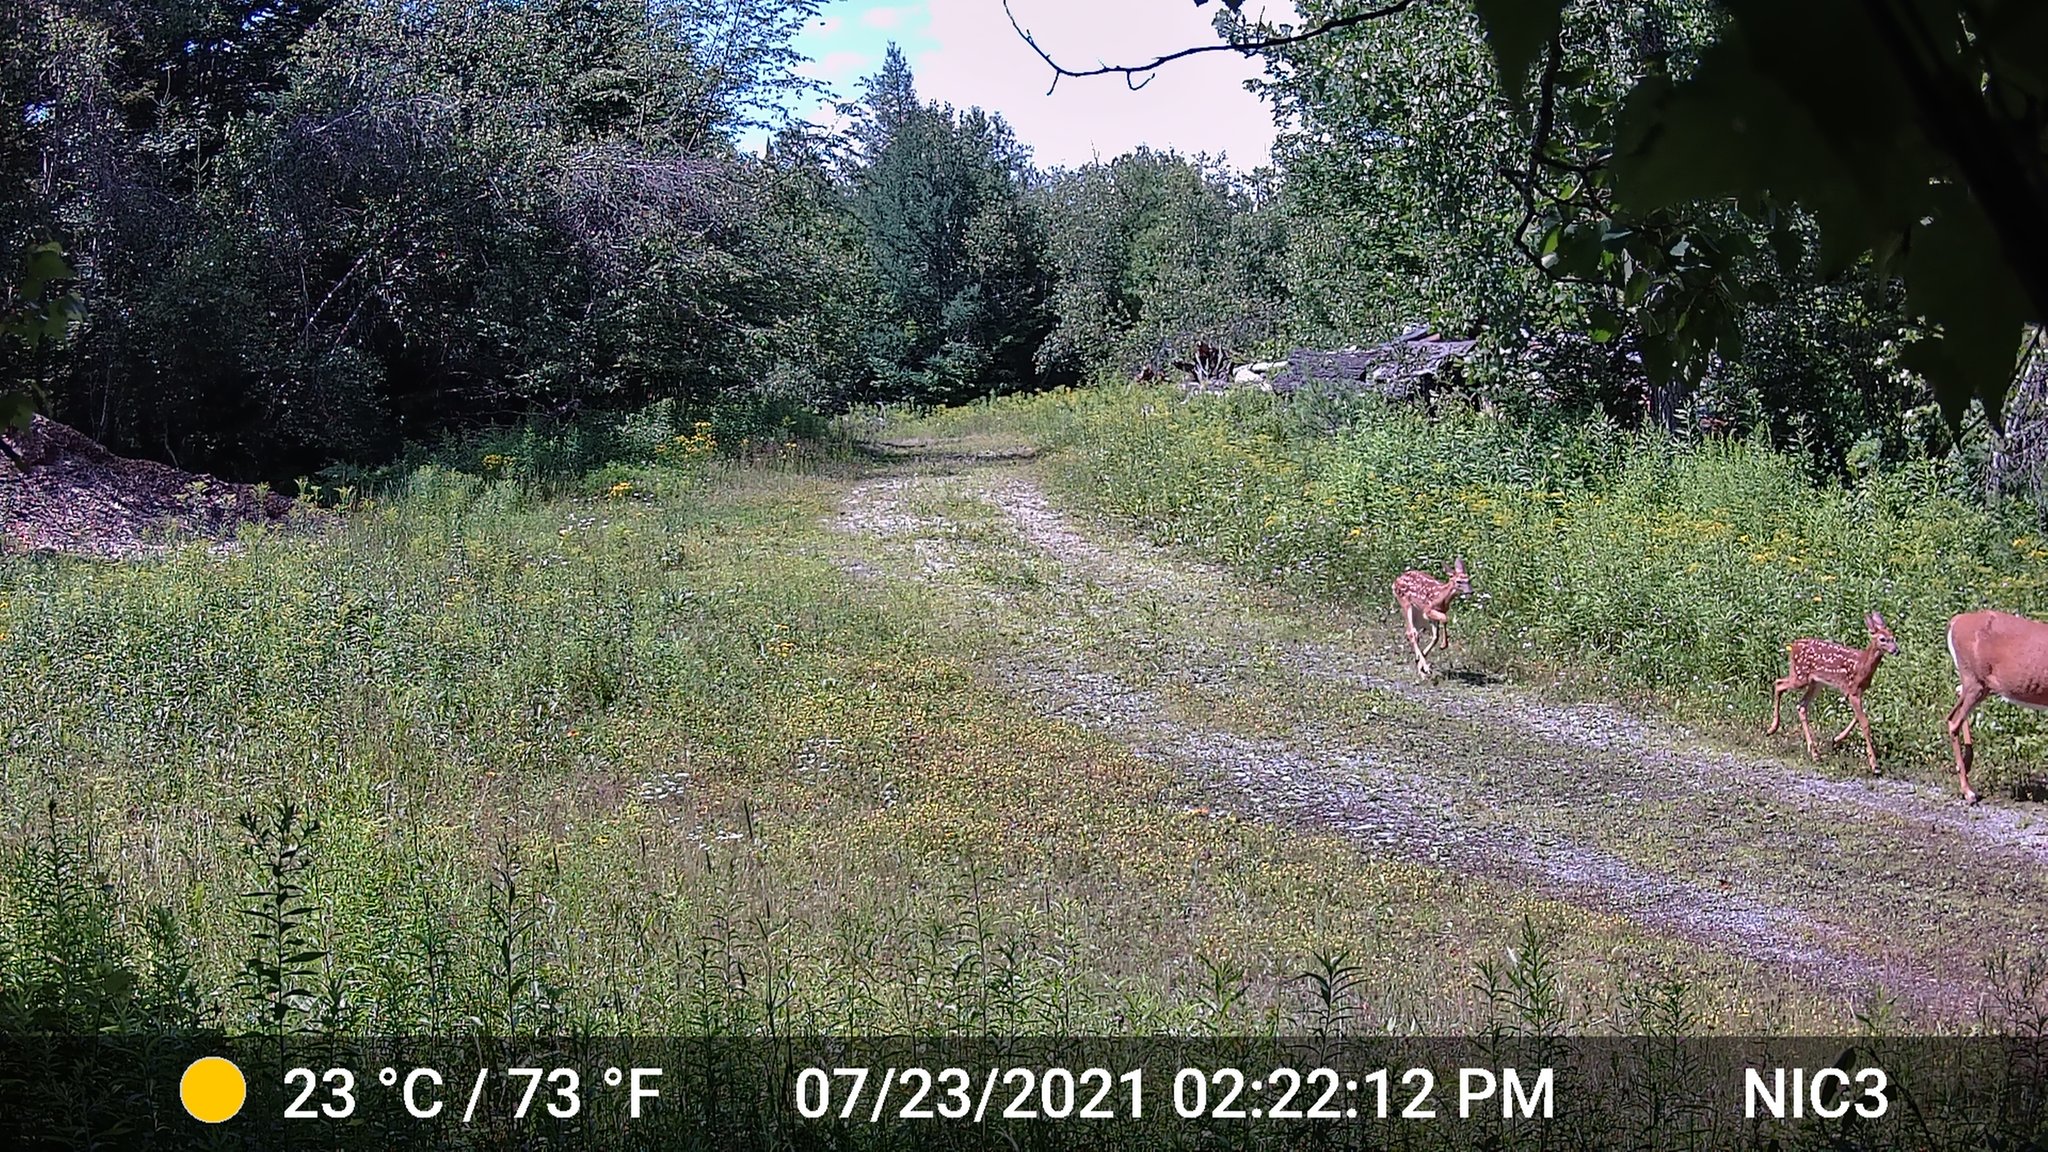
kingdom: Animalia
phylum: Chordata
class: Mammalia
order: Artiodactyla
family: Cervidae
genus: Odocoileus
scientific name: Odocoileus virginianus
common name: White-tailed deer
